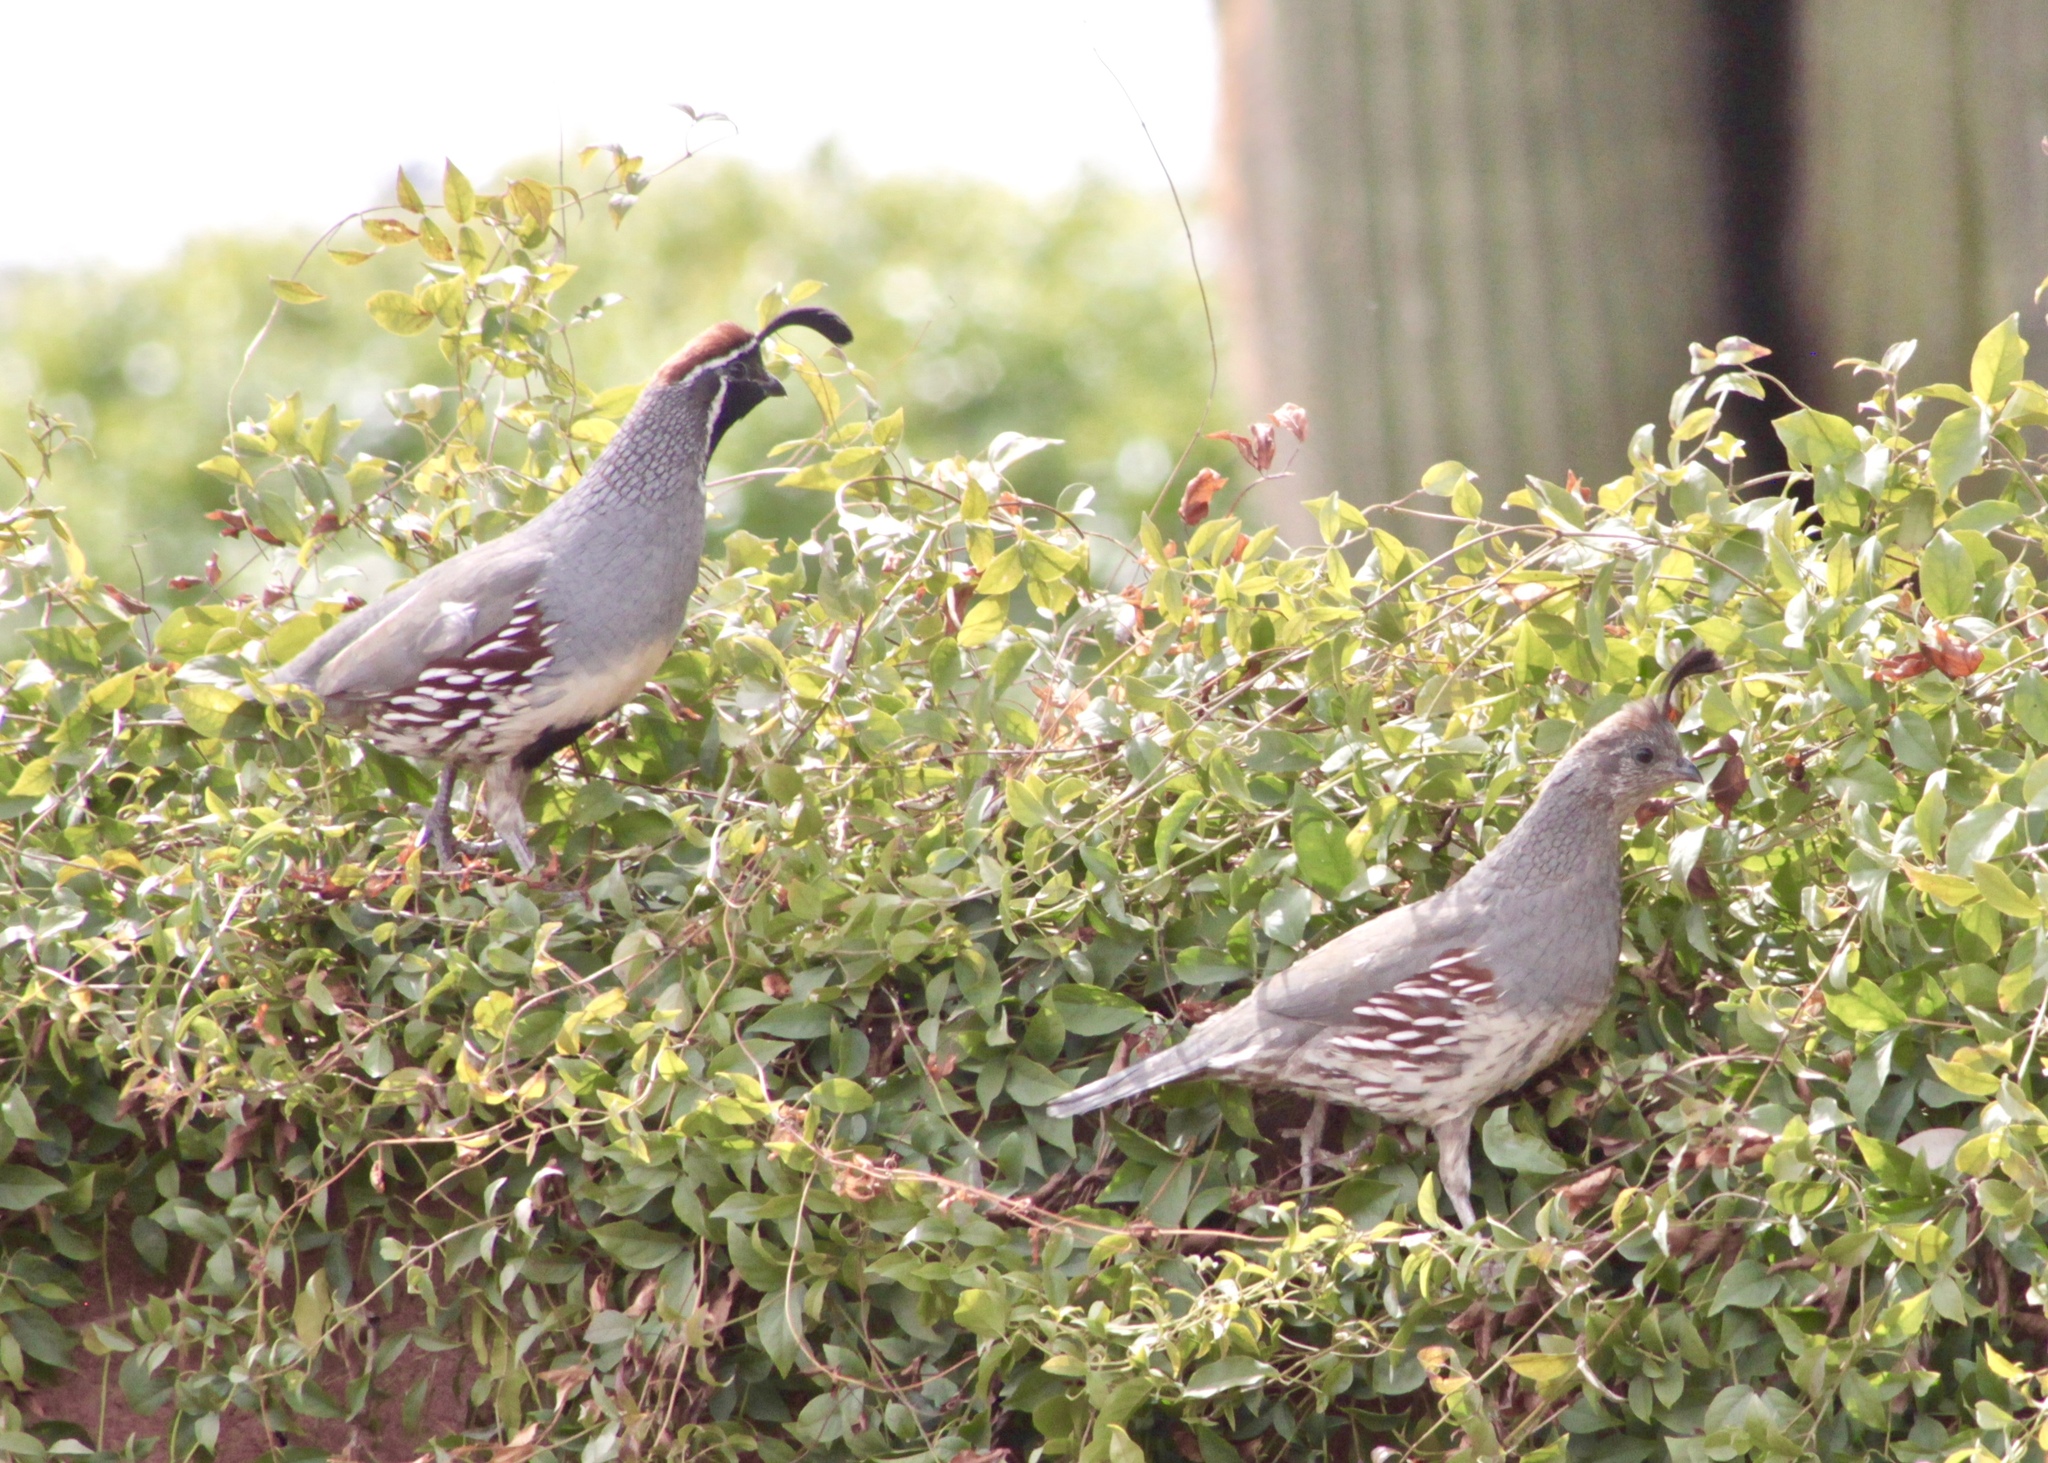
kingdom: Animalia
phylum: Chordata
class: Aves
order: Galliformes
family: Odontophoridae
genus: Callipepla
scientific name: Callipepla gambelii
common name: Gambel's quail
